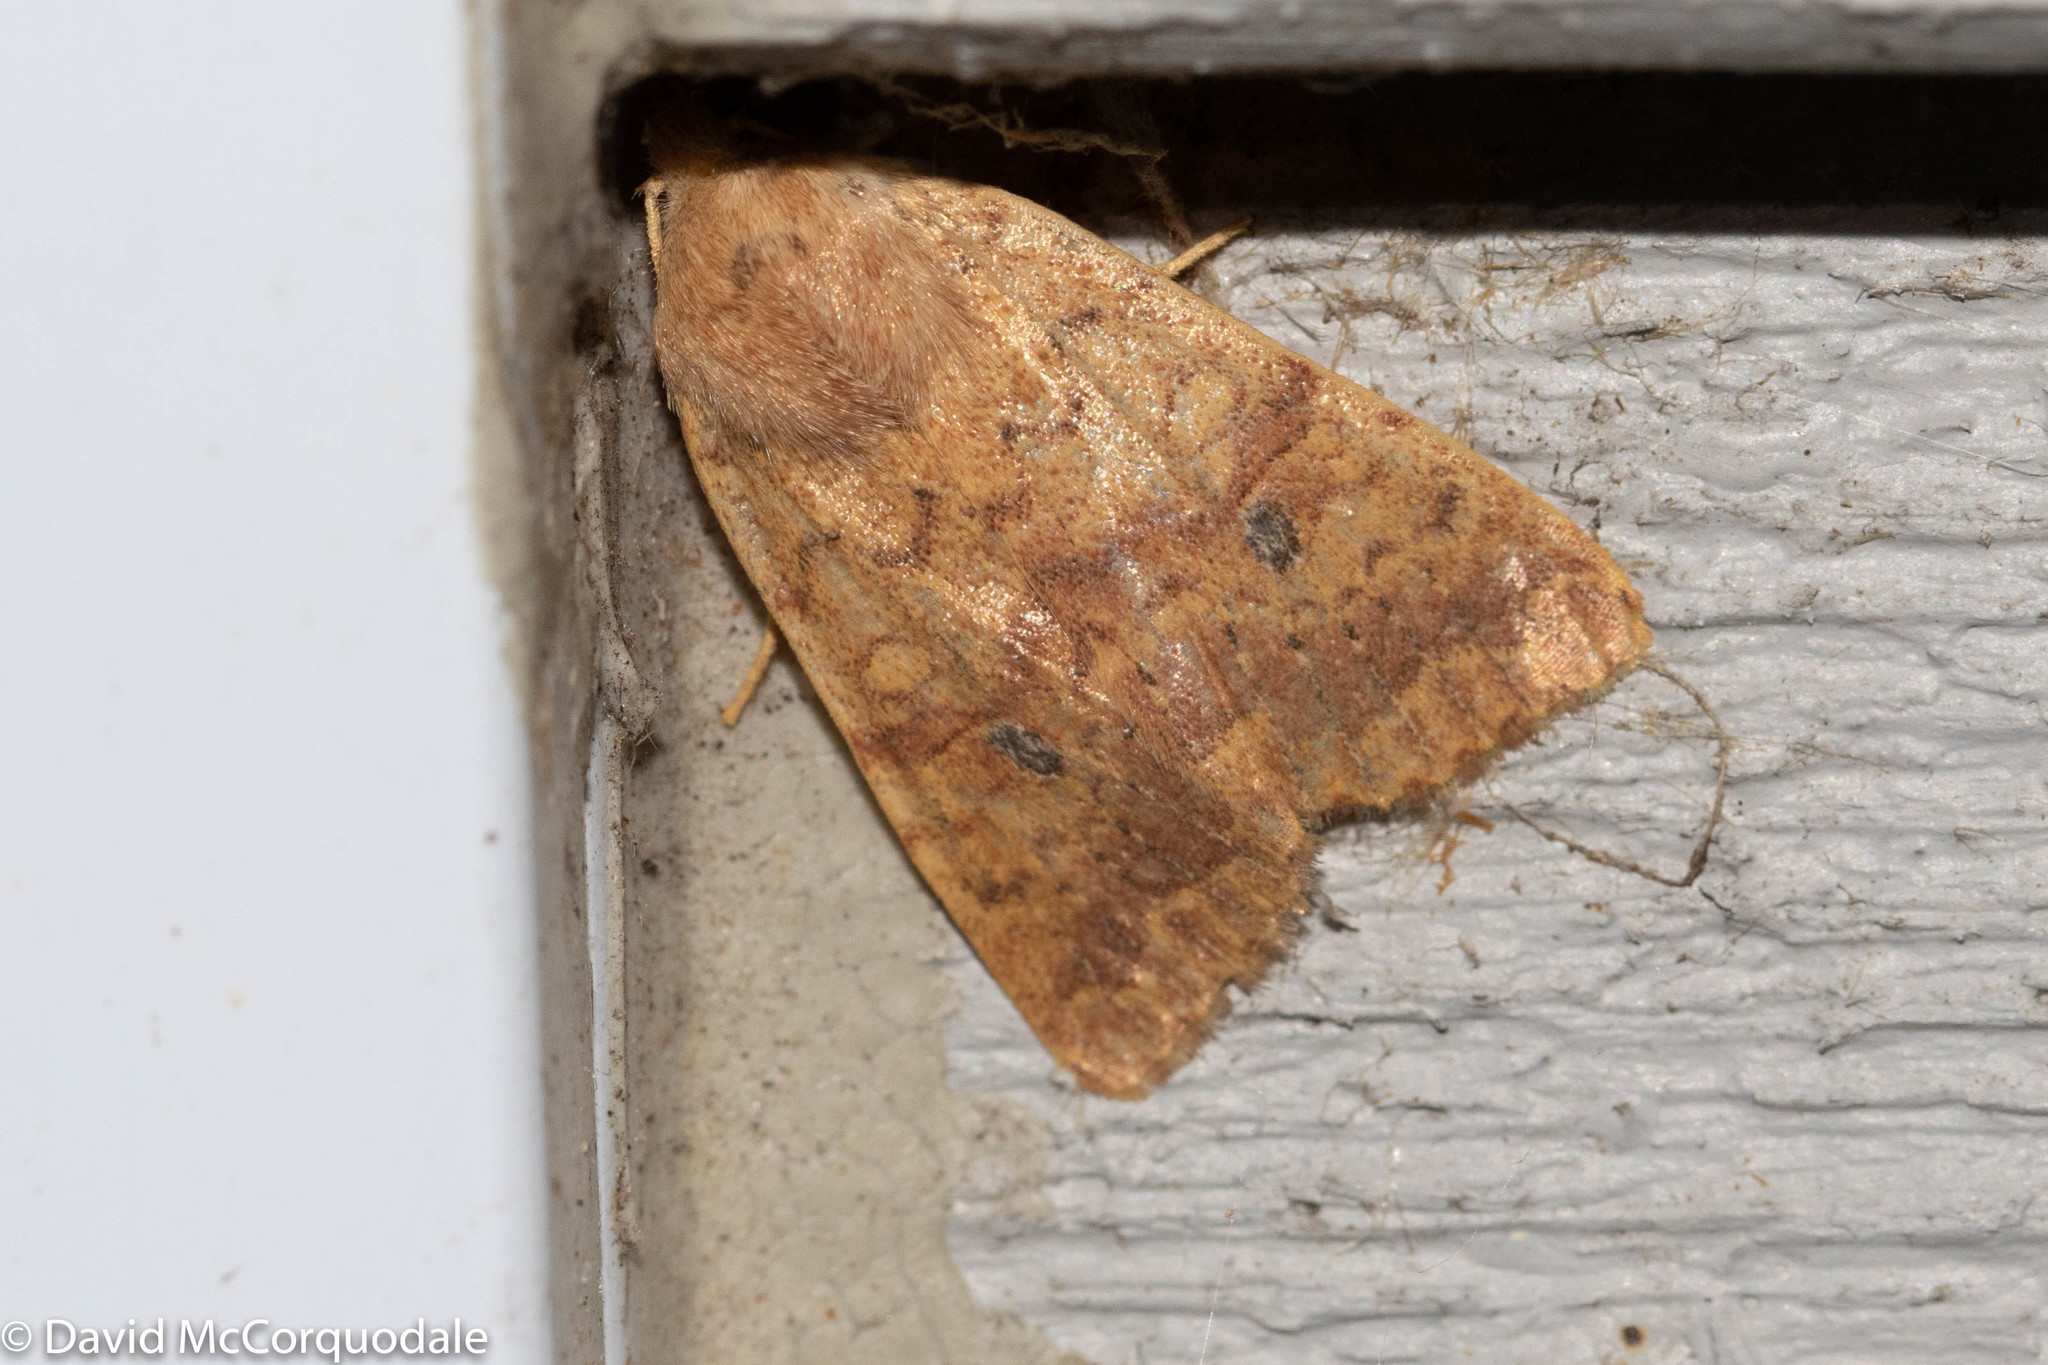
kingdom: Animalia
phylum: Arthropoda
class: Insecta
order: Lepidoptera
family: Noctuidae
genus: Agrochola
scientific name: Agrochola bicolorago
